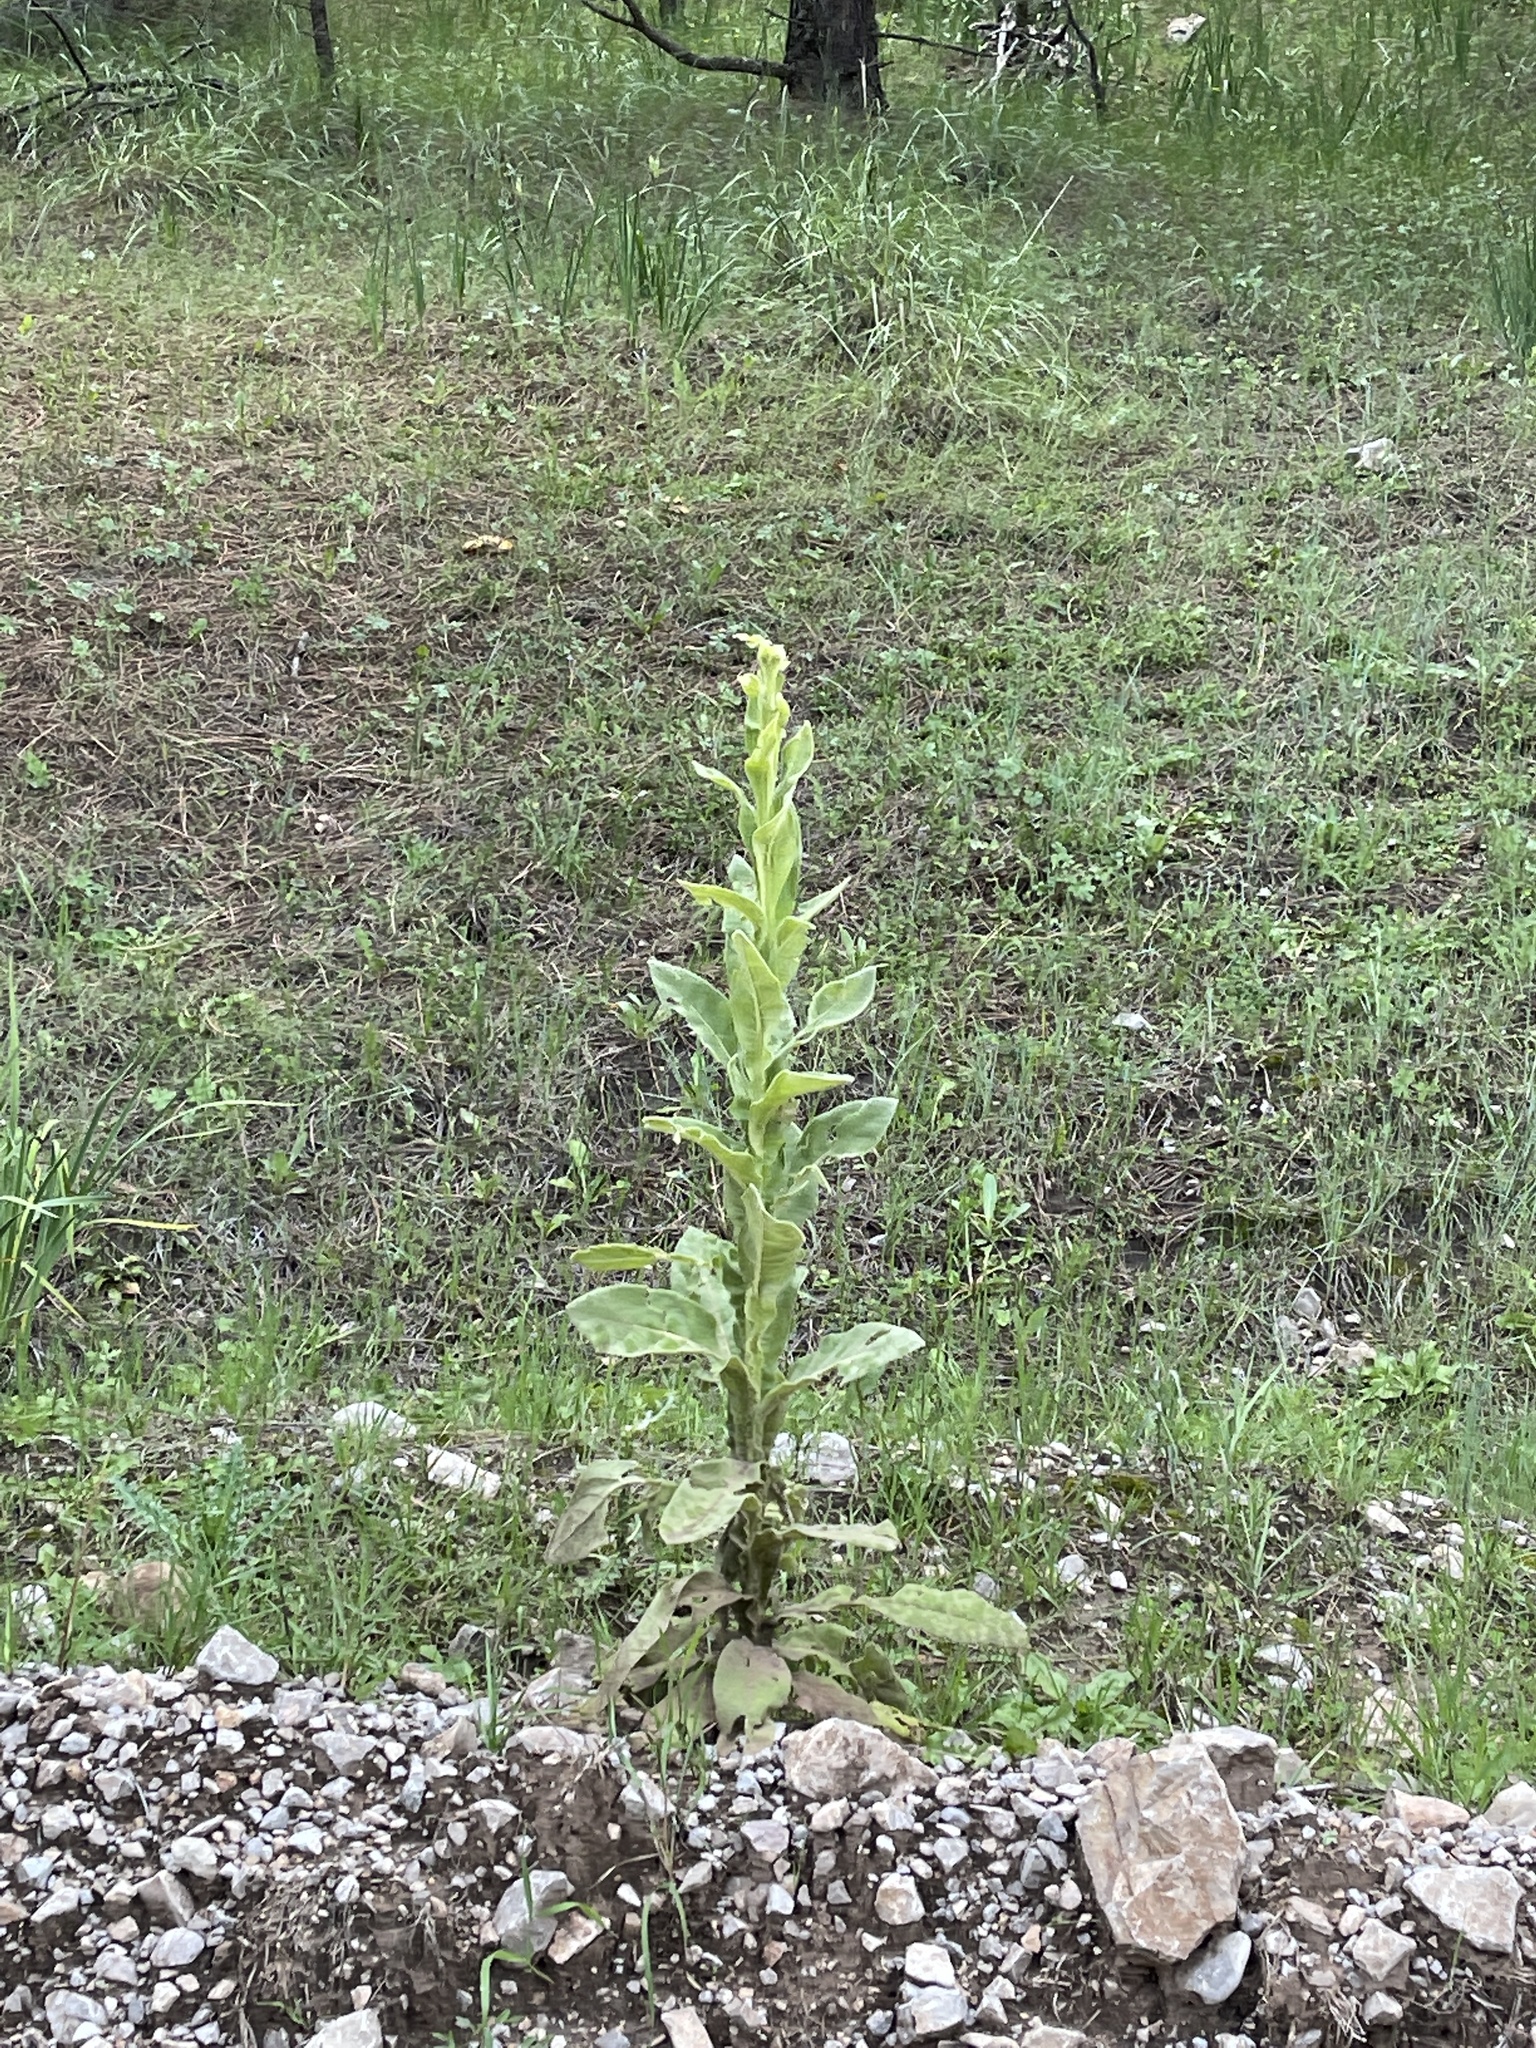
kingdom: Plantae
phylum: Tracheophyta
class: Magnoliopsida
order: Lamiales
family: Scrophulariaceae
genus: Verbascum
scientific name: Verbascum thapsus
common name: Common mullein
